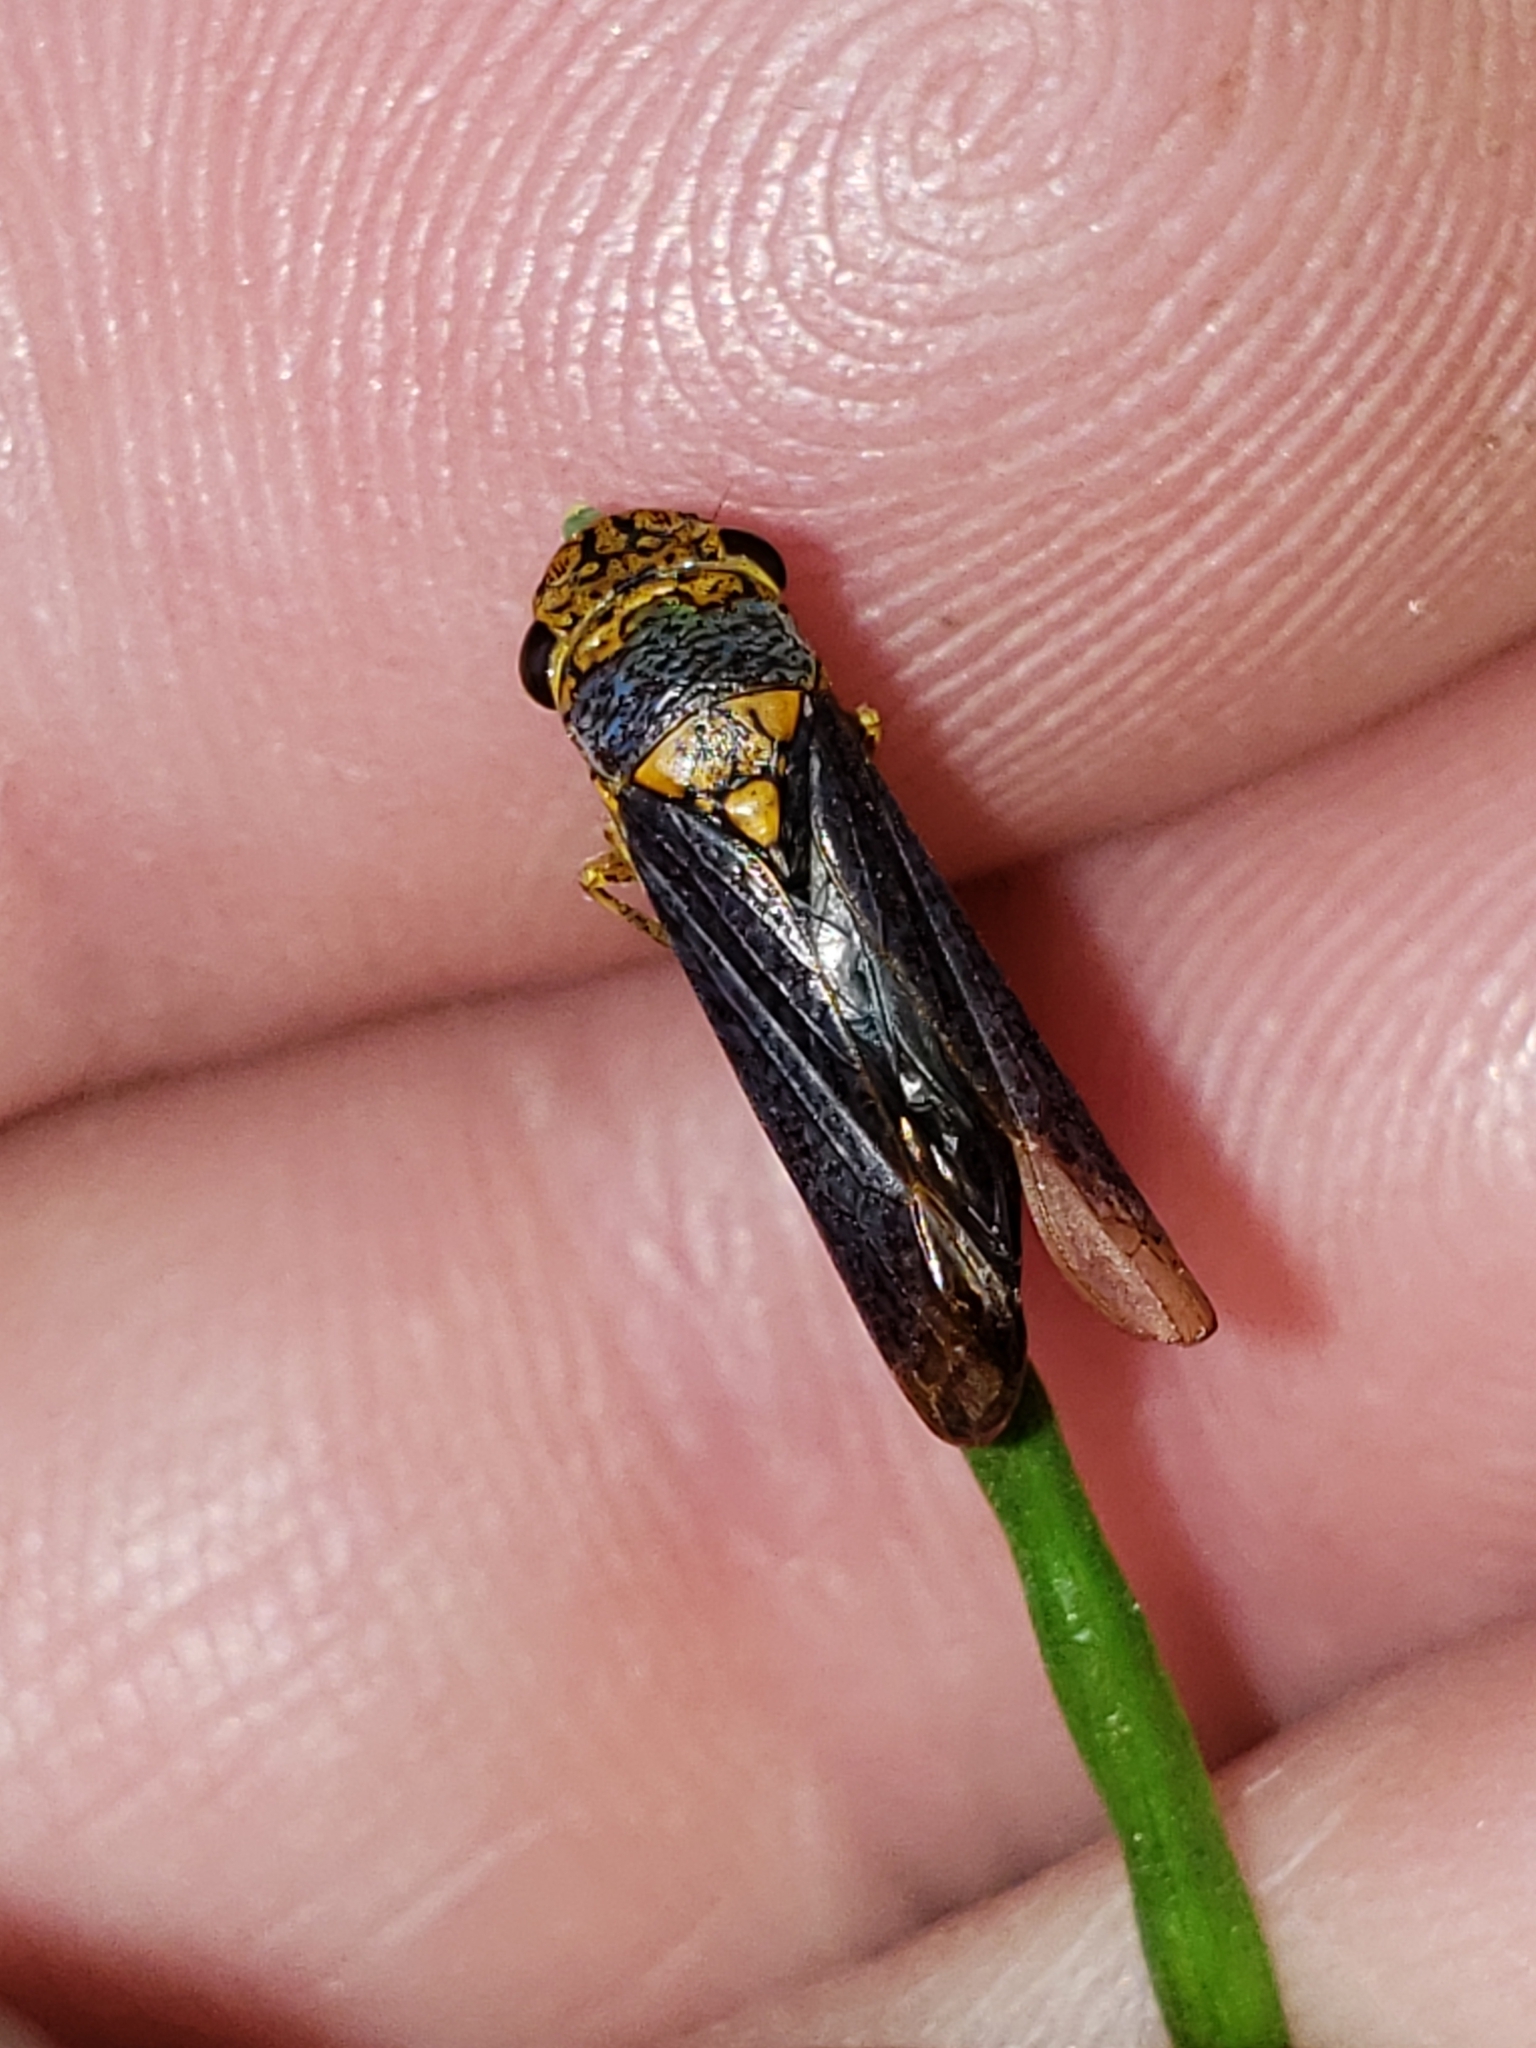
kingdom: Animalia
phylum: Arthropoda
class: Insecta
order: Hemiptera
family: Cicadellidae
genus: Oncometopia
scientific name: Oncometopia orbona
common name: Broad-headed sharpshooter
